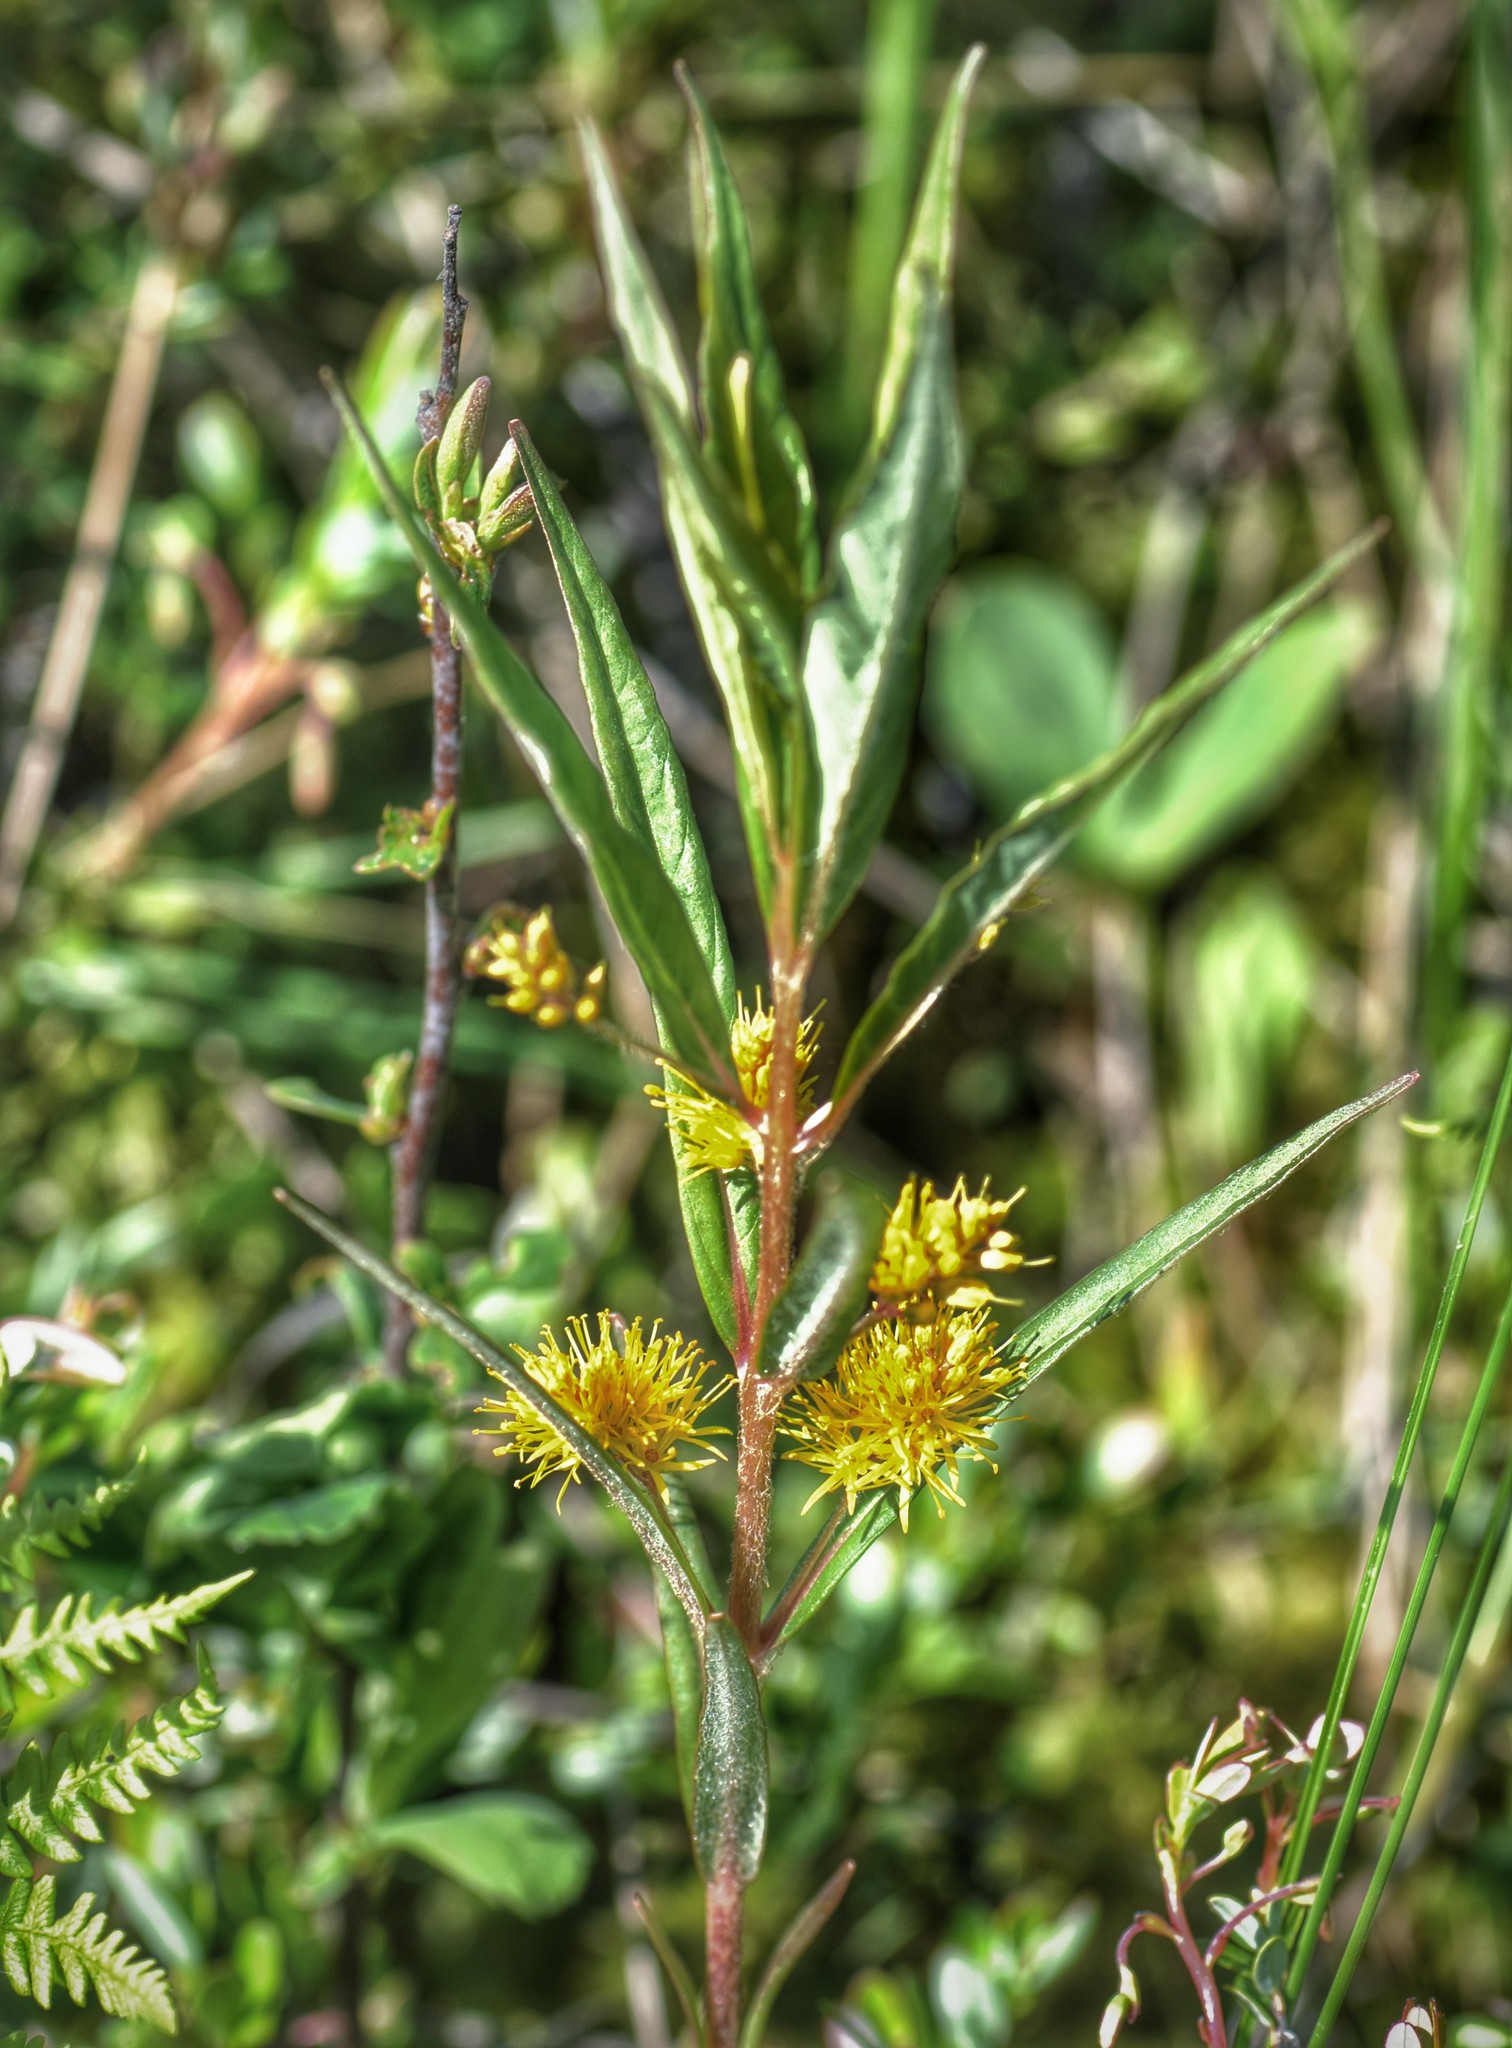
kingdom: Plantae
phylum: Tracheophyta
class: Magnoliopsida
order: Ericales
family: Primulaceae
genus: Lysimachia
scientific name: Lysimachia thyrsiflora
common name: Tufted loosestrife
